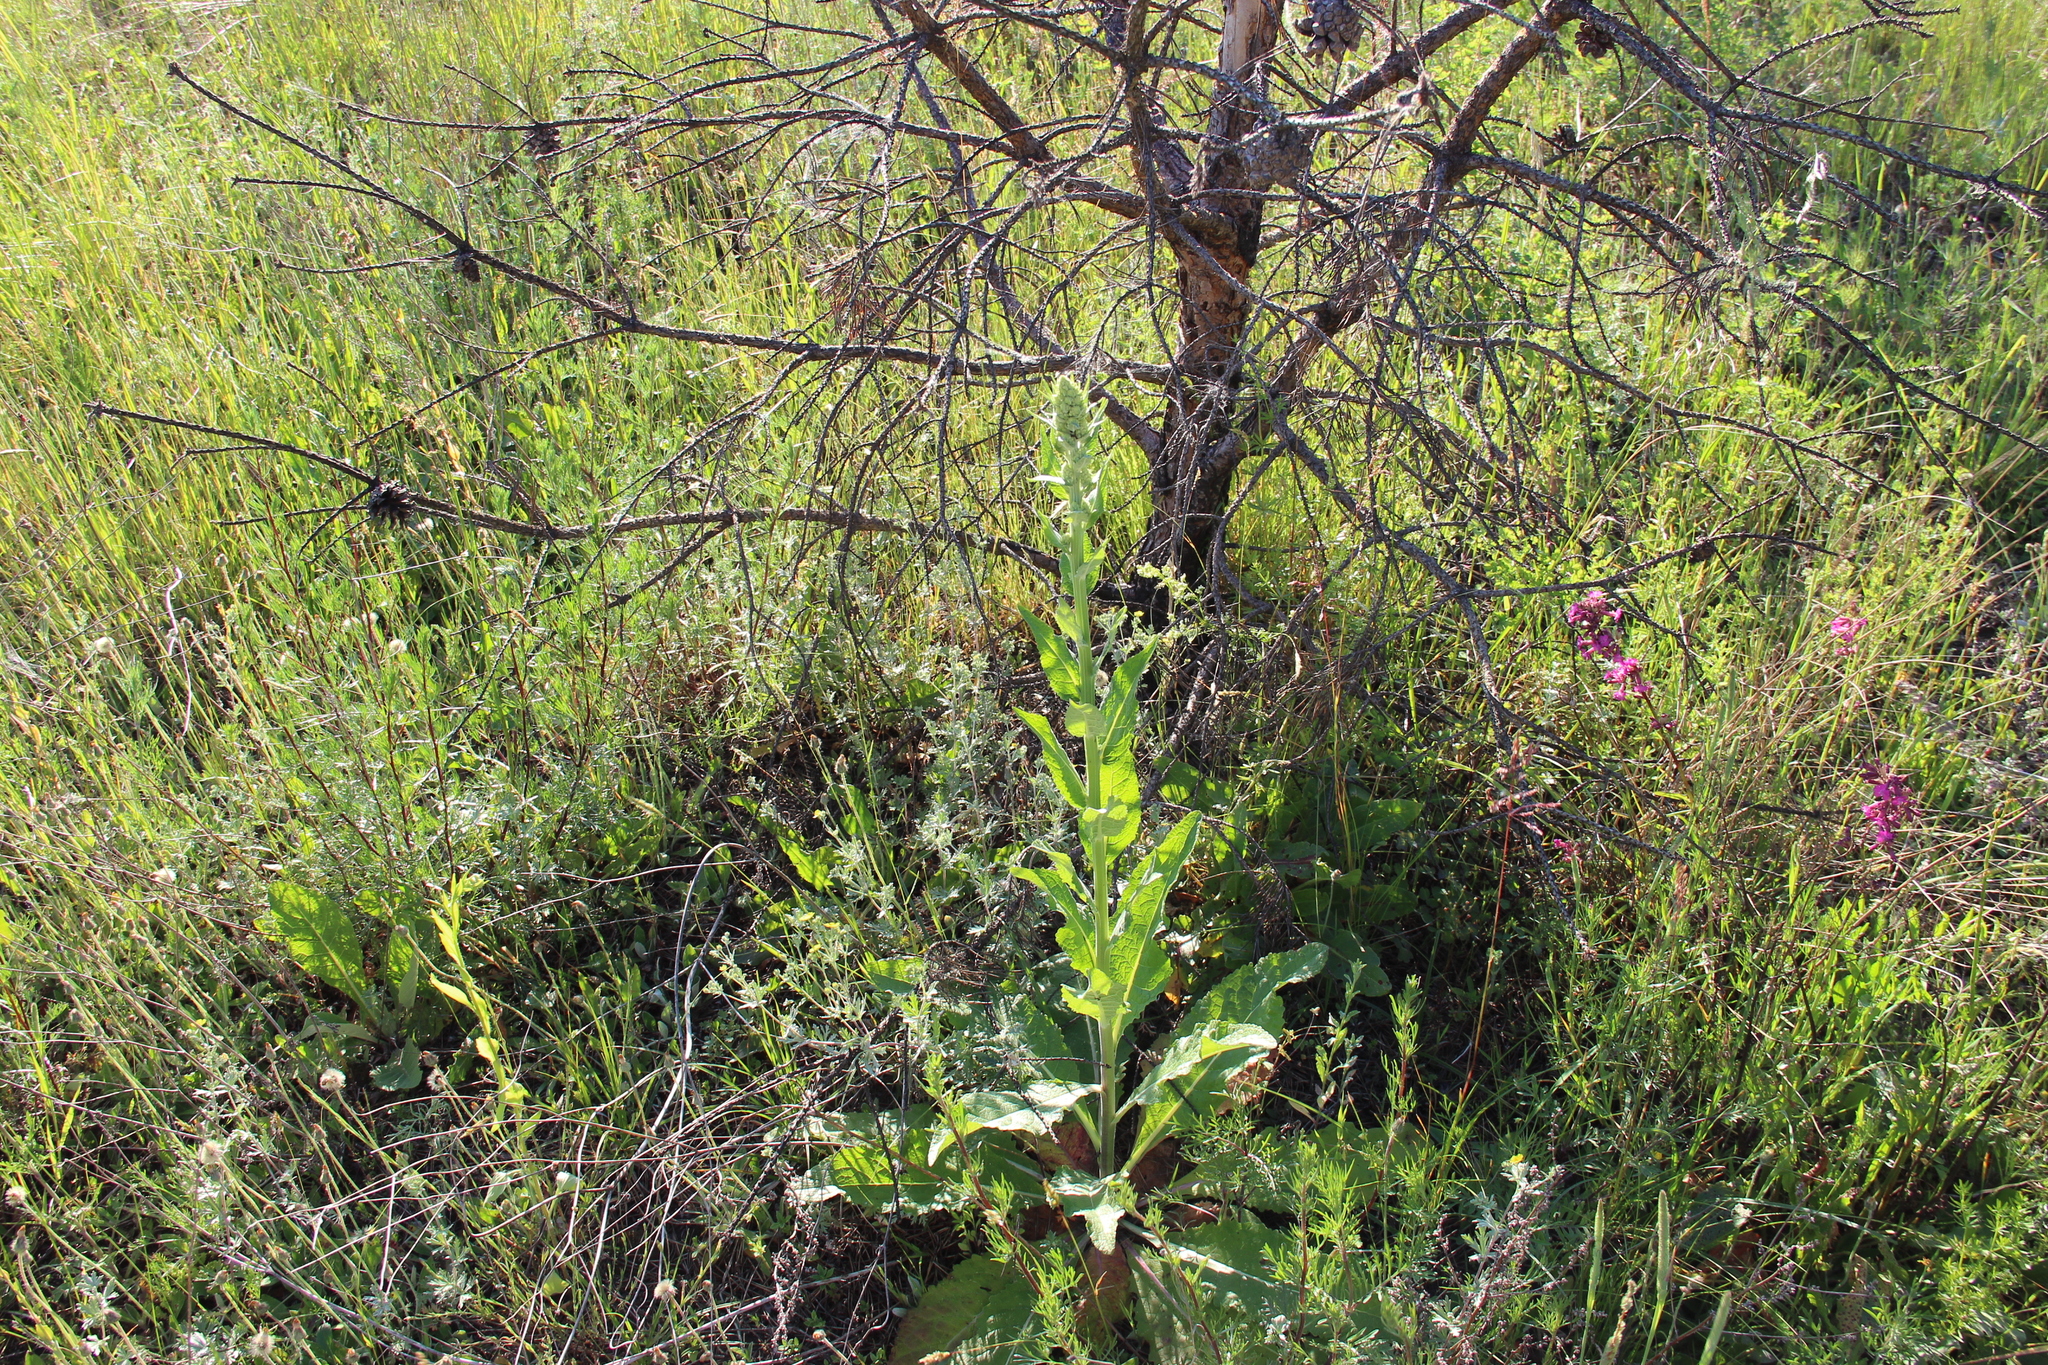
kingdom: Plantae
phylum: Tracheophyta
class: Magnoliopsida
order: Lamiales
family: Scrophulariaceae
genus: Verbascum
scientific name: Verbascum lychnitis
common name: White mullein
